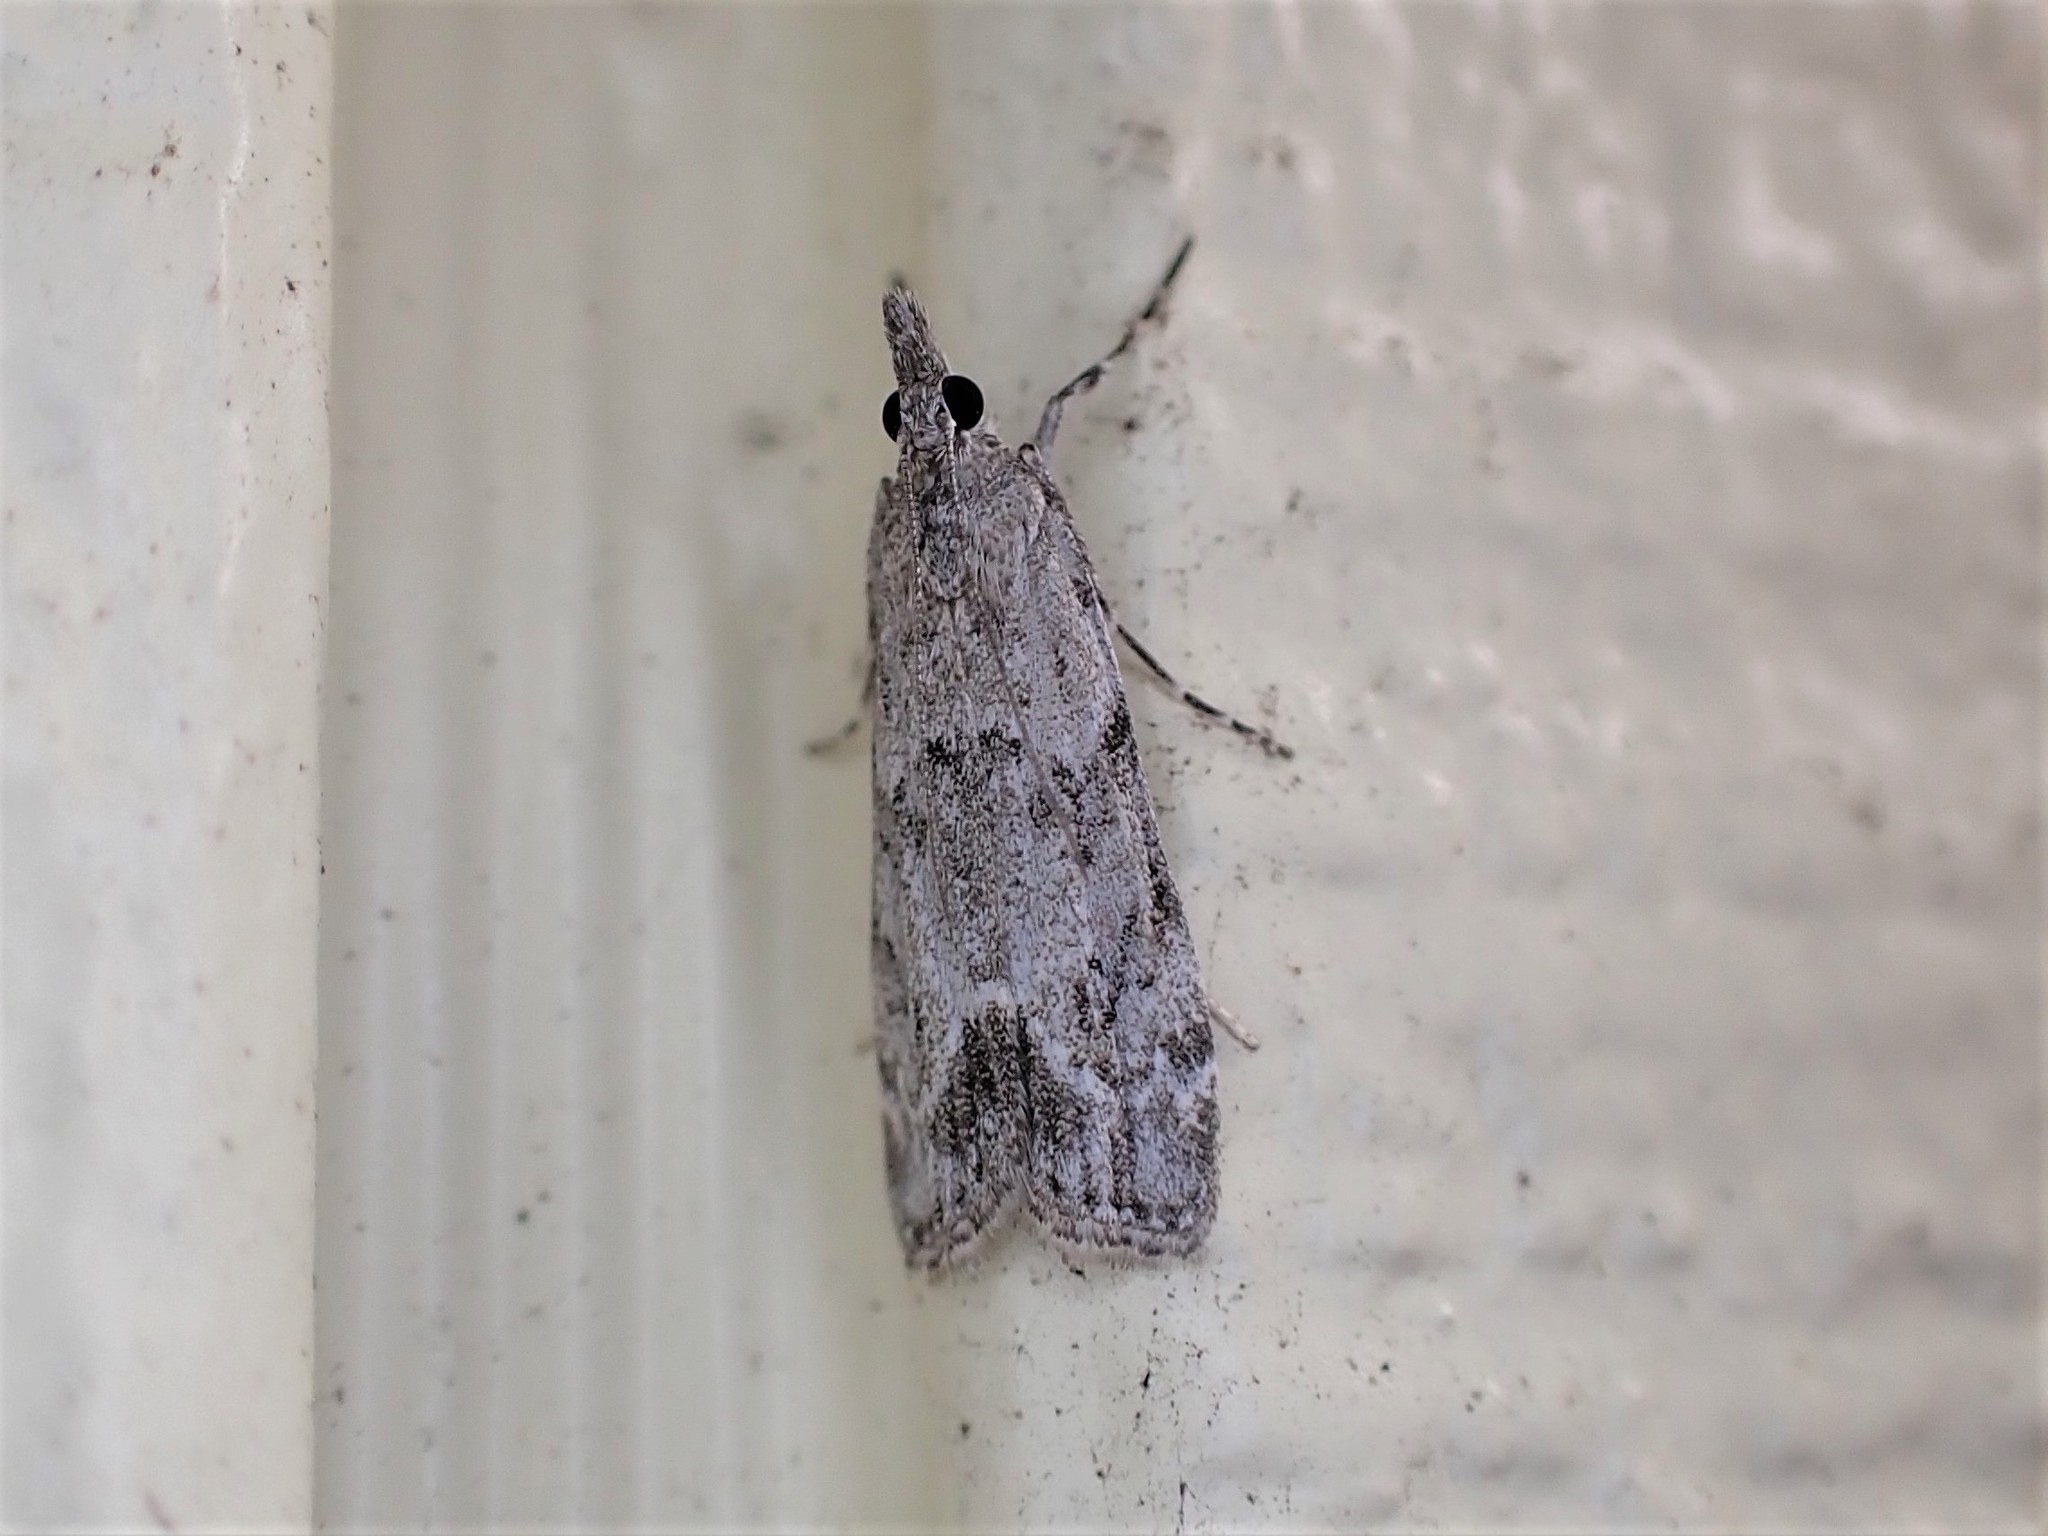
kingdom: Animalia
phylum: Arthropoda
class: Insecta
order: Lepidoptera
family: Crambidae
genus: Eudonia
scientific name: Eudonia rakaiensis
